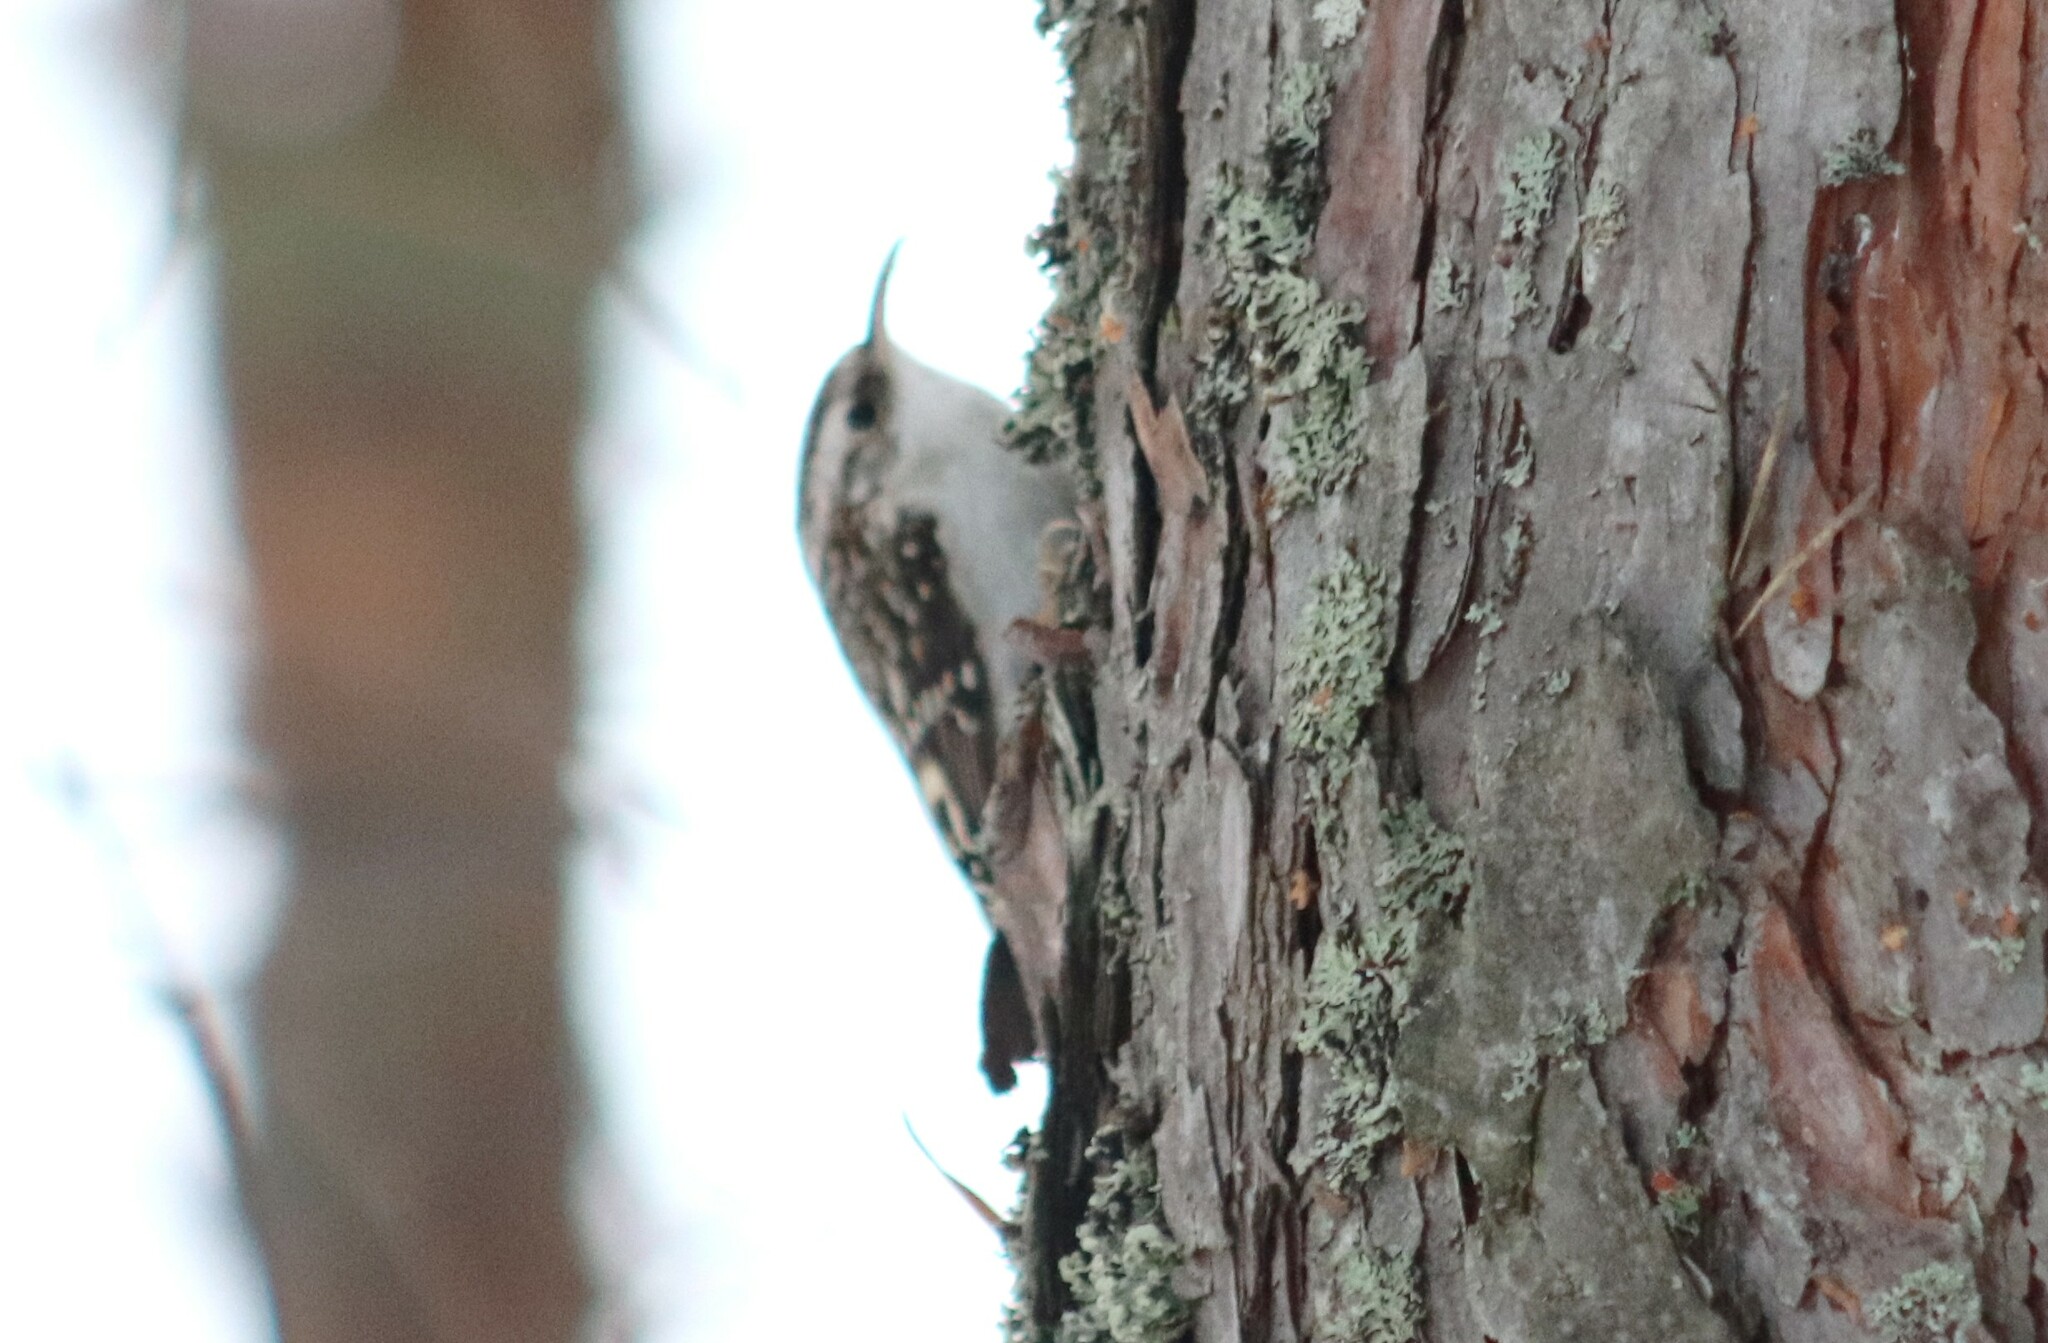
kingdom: Animalia
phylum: Chordata
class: Aves
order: Passeriformes
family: Certhiidae
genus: Certhia
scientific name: Certhia familiaris
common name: Eurasian treecreeper
